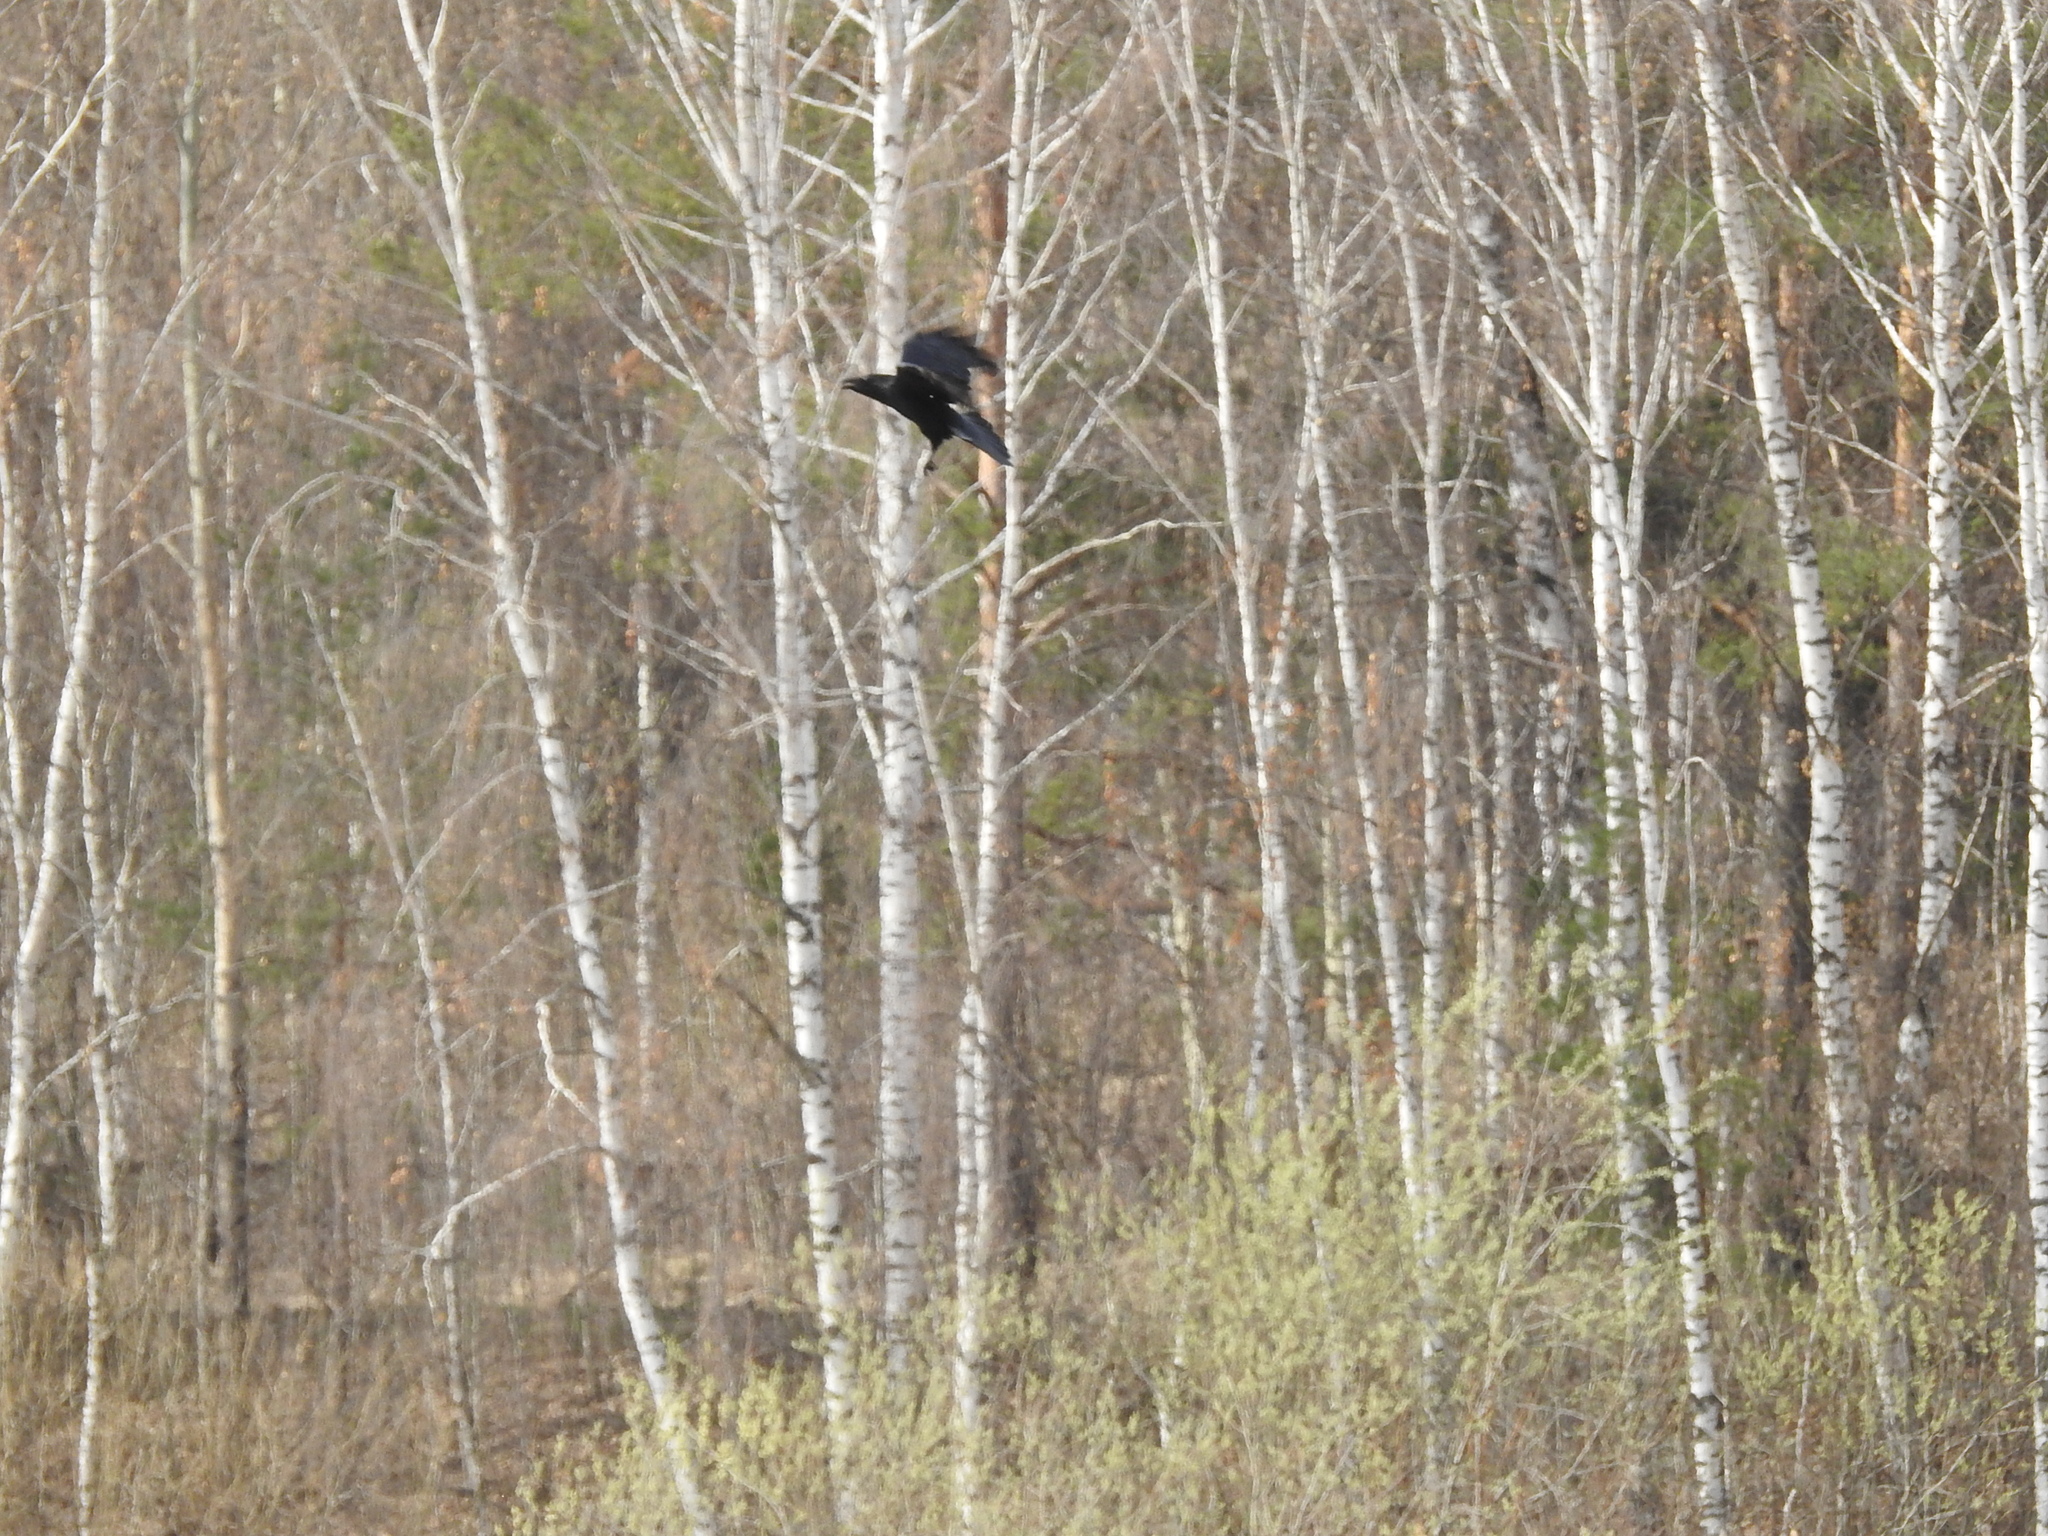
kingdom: Animalia
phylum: Chordata
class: Aves
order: Passeriformes
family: Corvidae
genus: Corvus
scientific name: Corvus corax
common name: Common raven
